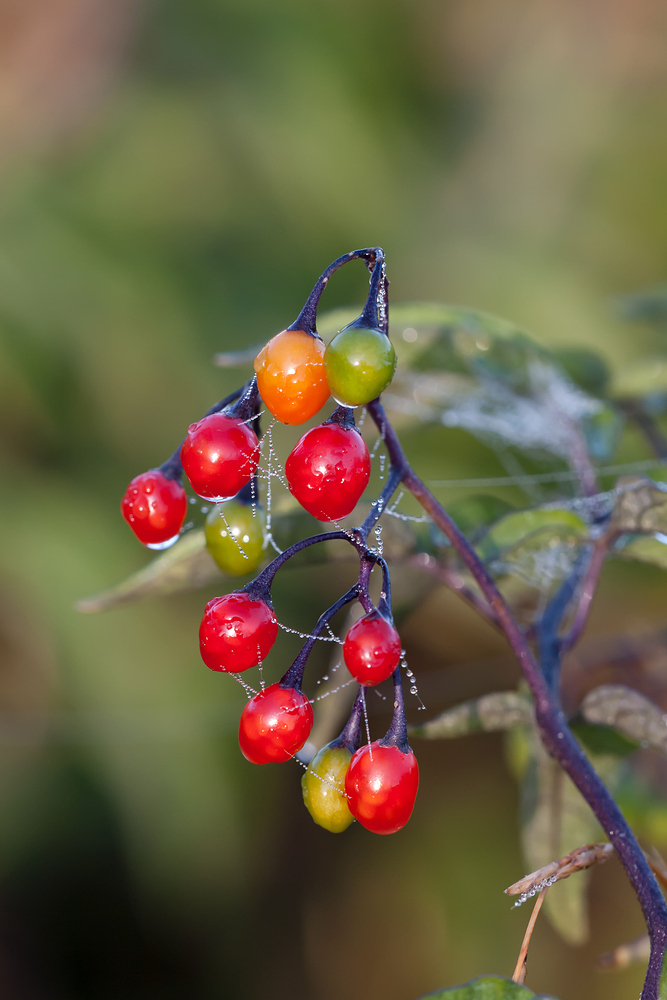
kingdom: Plantae
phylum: Tracheophyta
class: Magnoliopsida
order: Solanales
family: Solanaceae
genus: Solanum
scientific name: Solanum dulcamara
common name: Climbing nightshade
